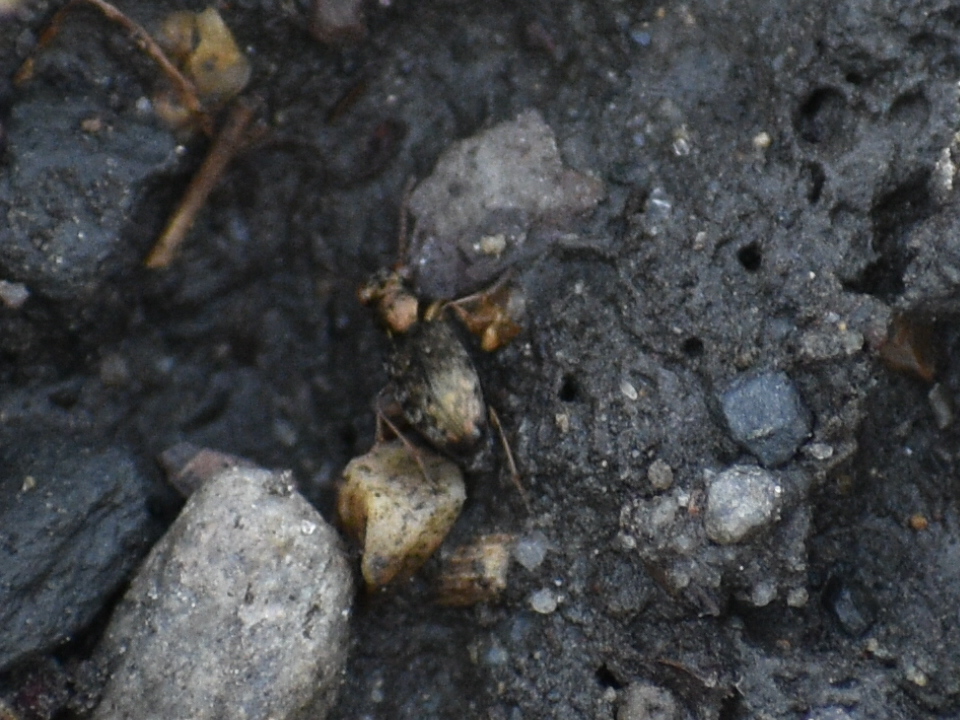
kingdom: Animalia
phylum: Arthropoda
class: Insecta
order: Coleoptera
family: Carabidae
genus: Asaphidion
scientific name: Asaphidion curtum
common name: Ground beetle
